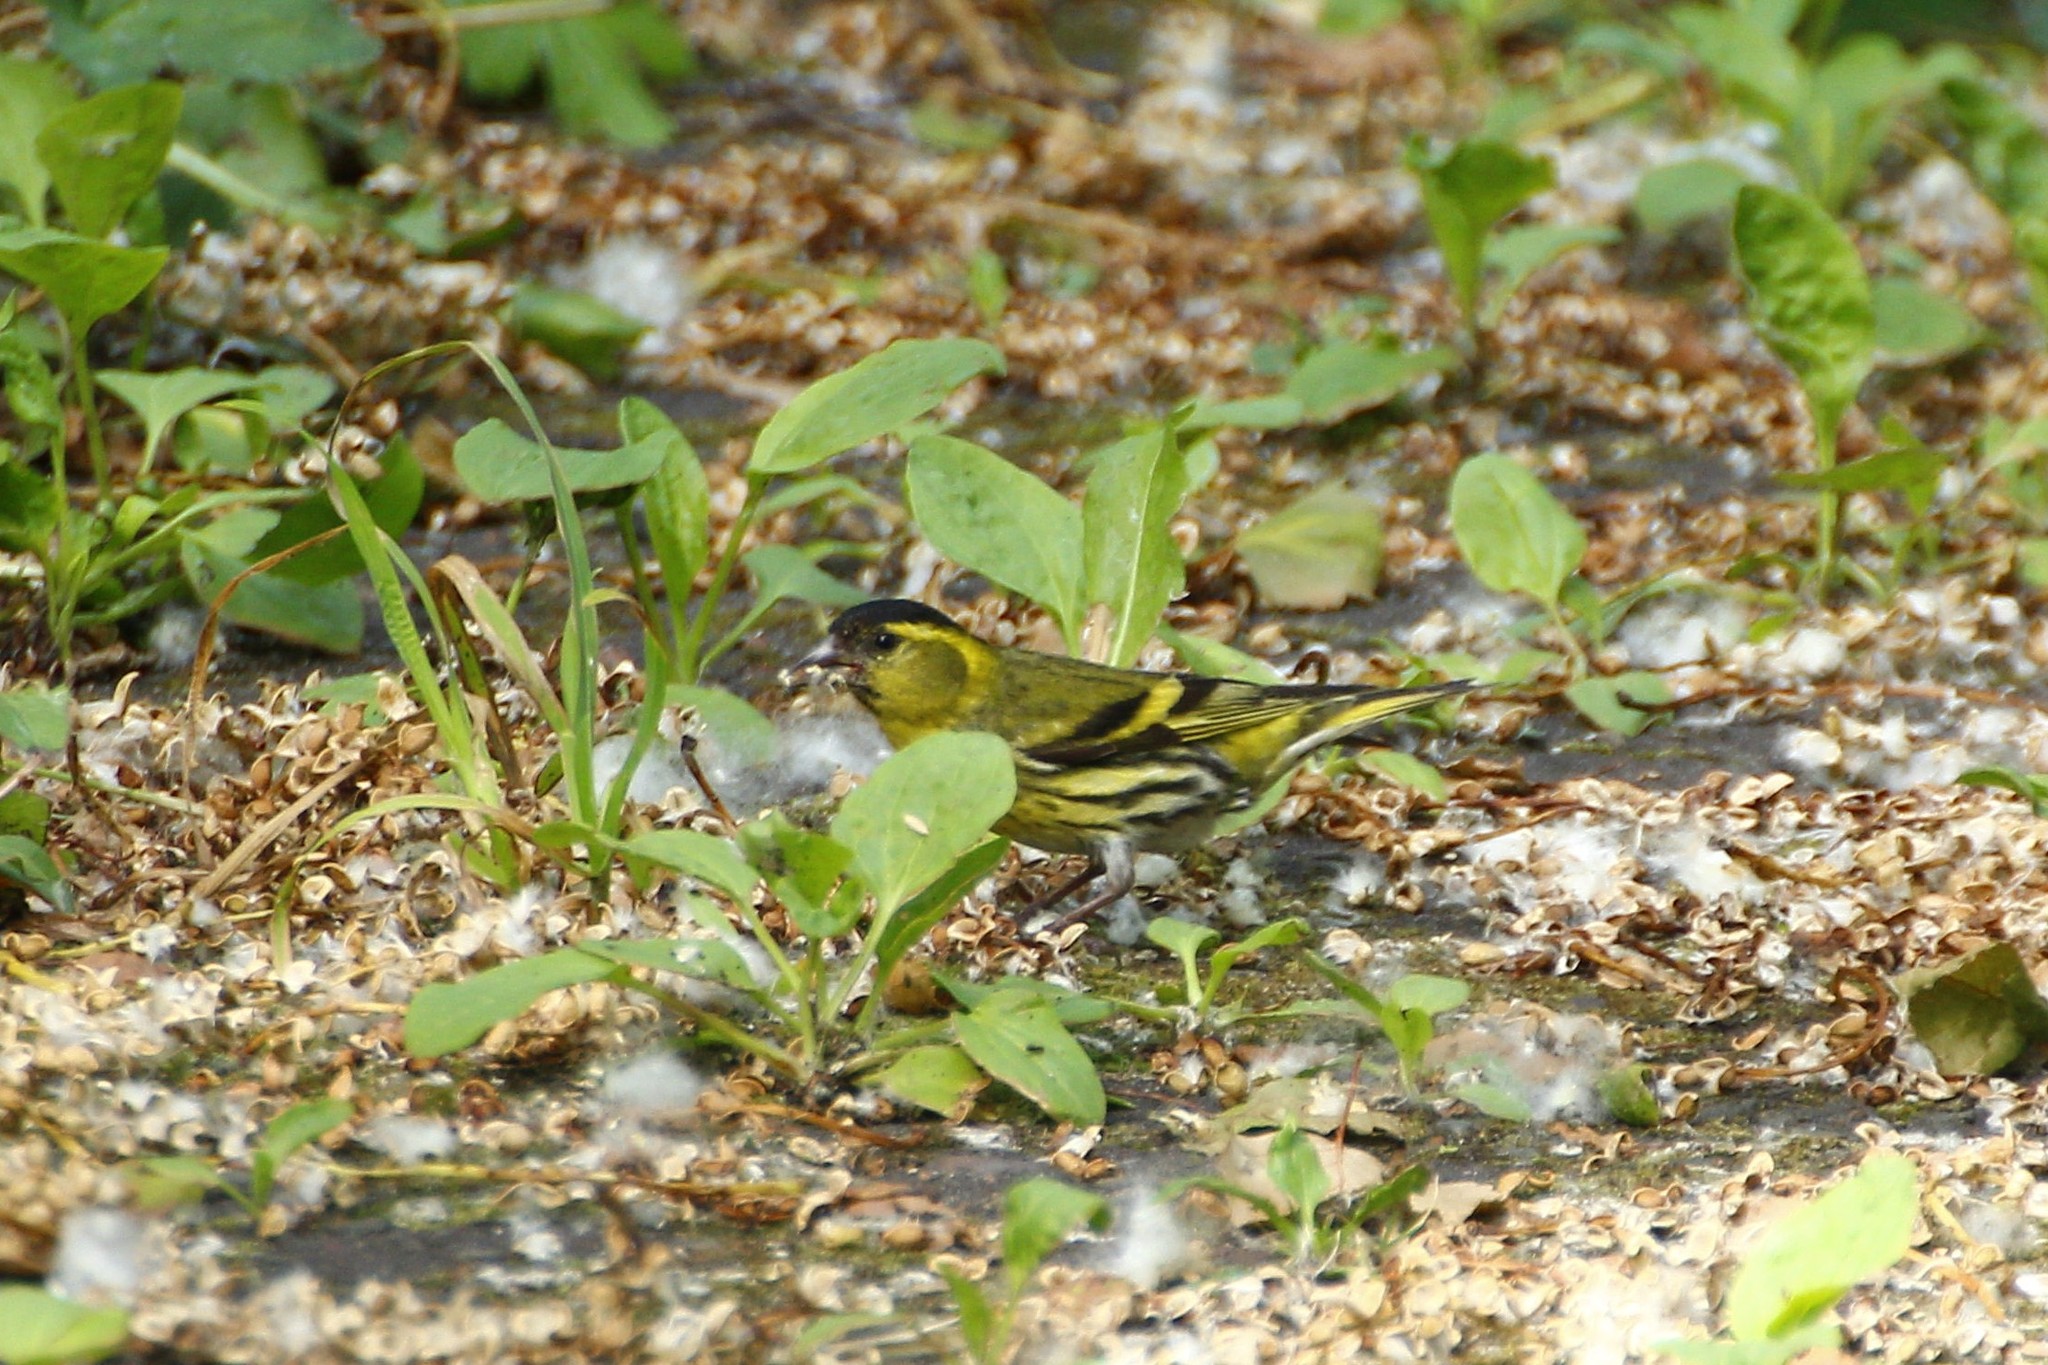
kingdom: Animalia
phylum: Chordata
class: Aves
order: Passeriformes
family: Fringillidae
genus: Spinus
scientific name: Spinus spinus
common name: Eurasian siskin
